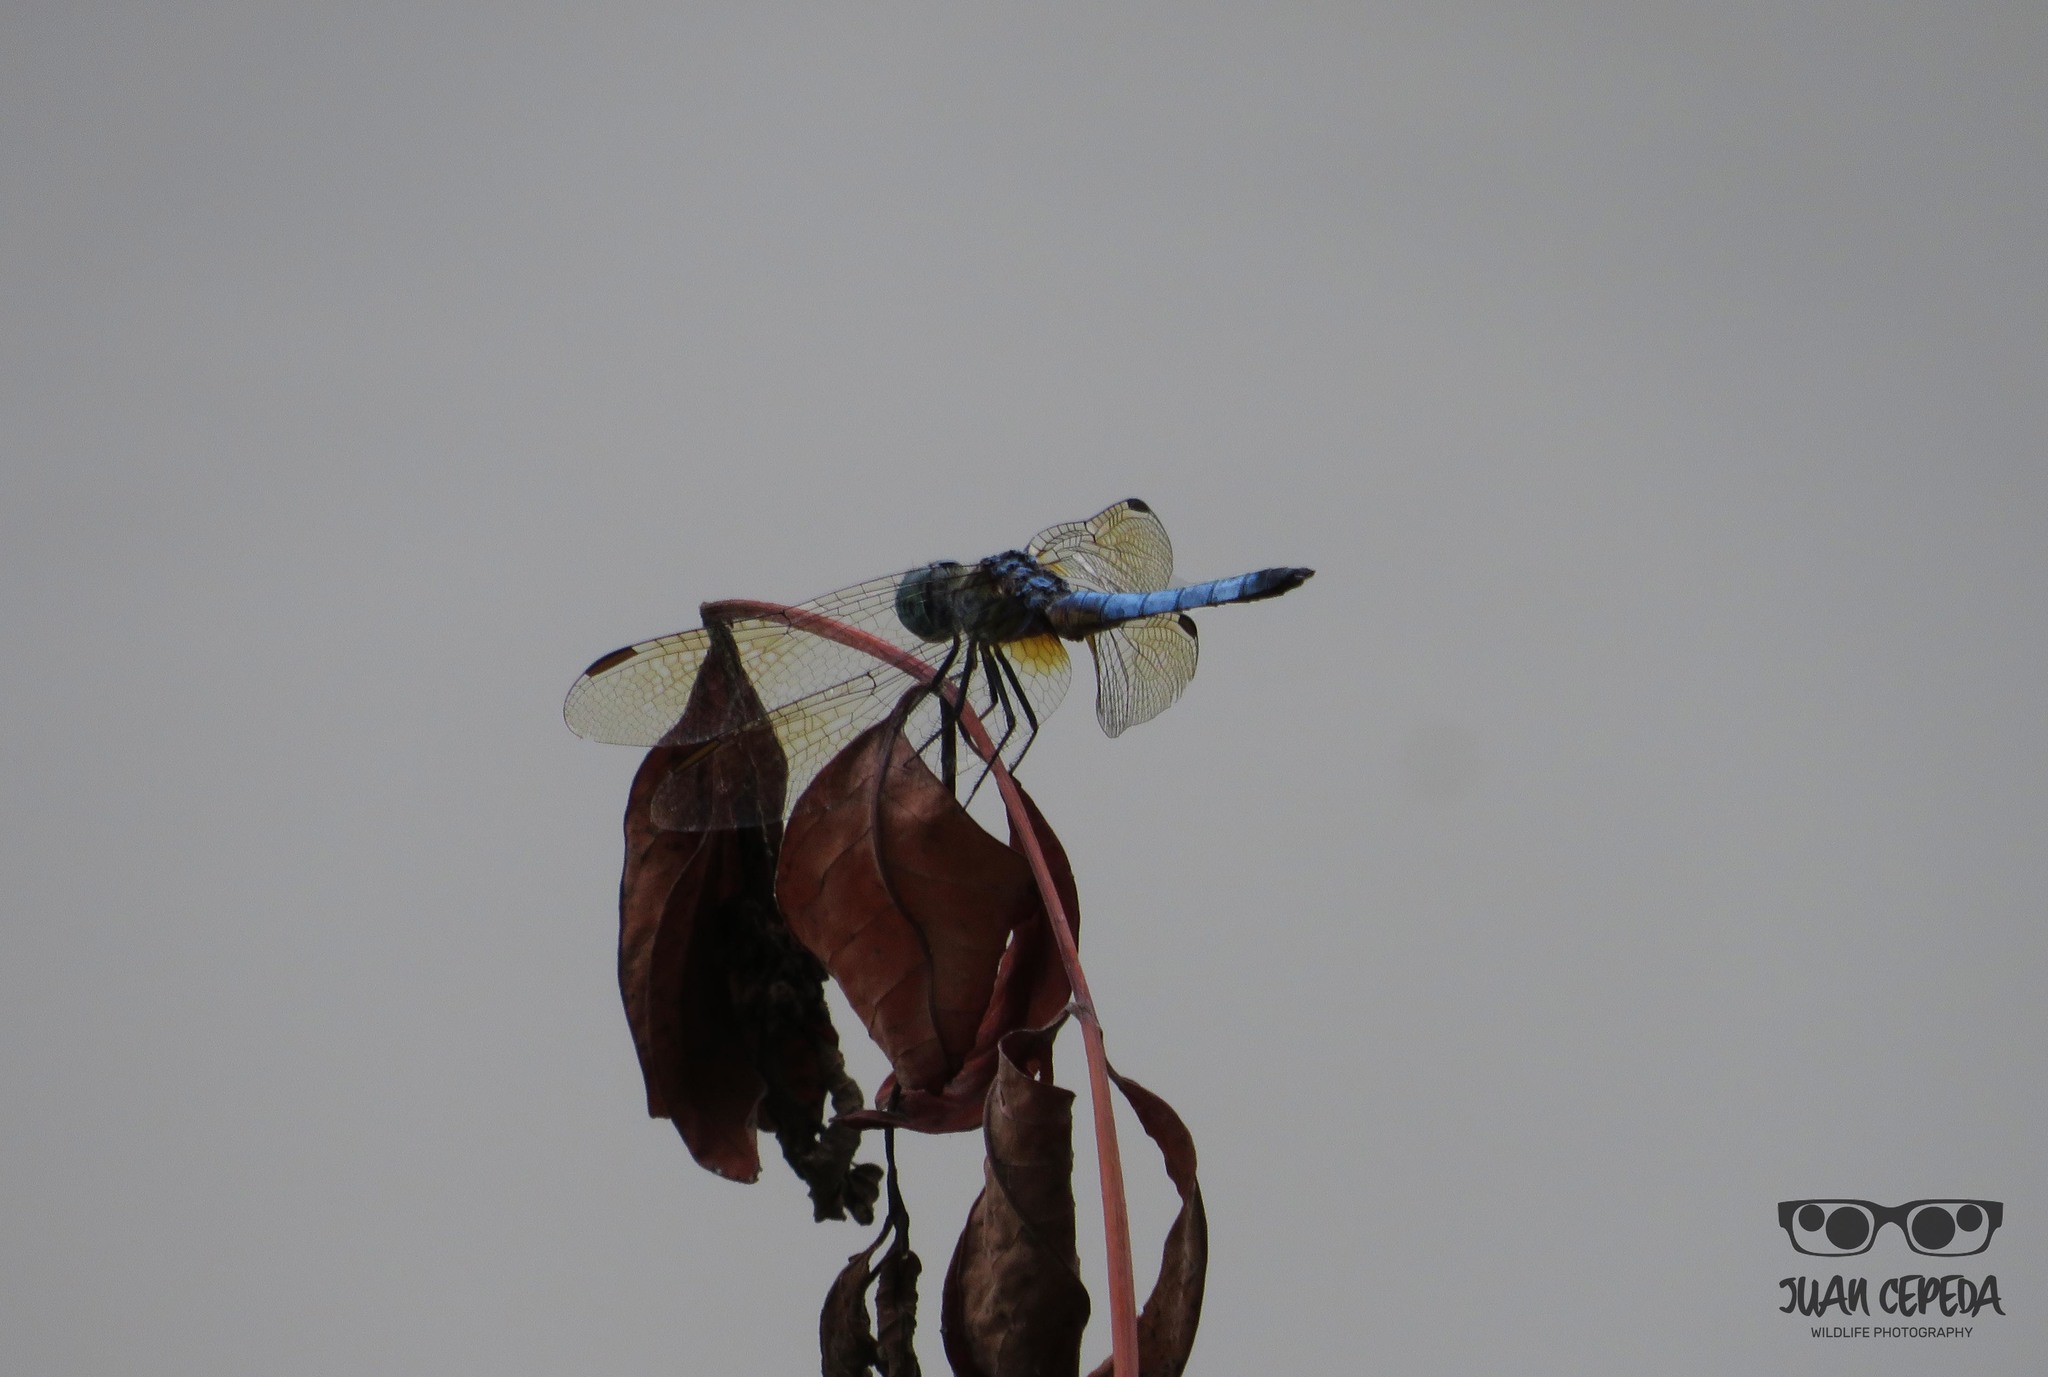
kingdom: Animalia
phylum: Arthropoda
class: Insecta
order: Odonata
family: Libellulidae
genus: Pachydiplax
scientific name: Pachydiplax longipennis
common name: Blue dasher
